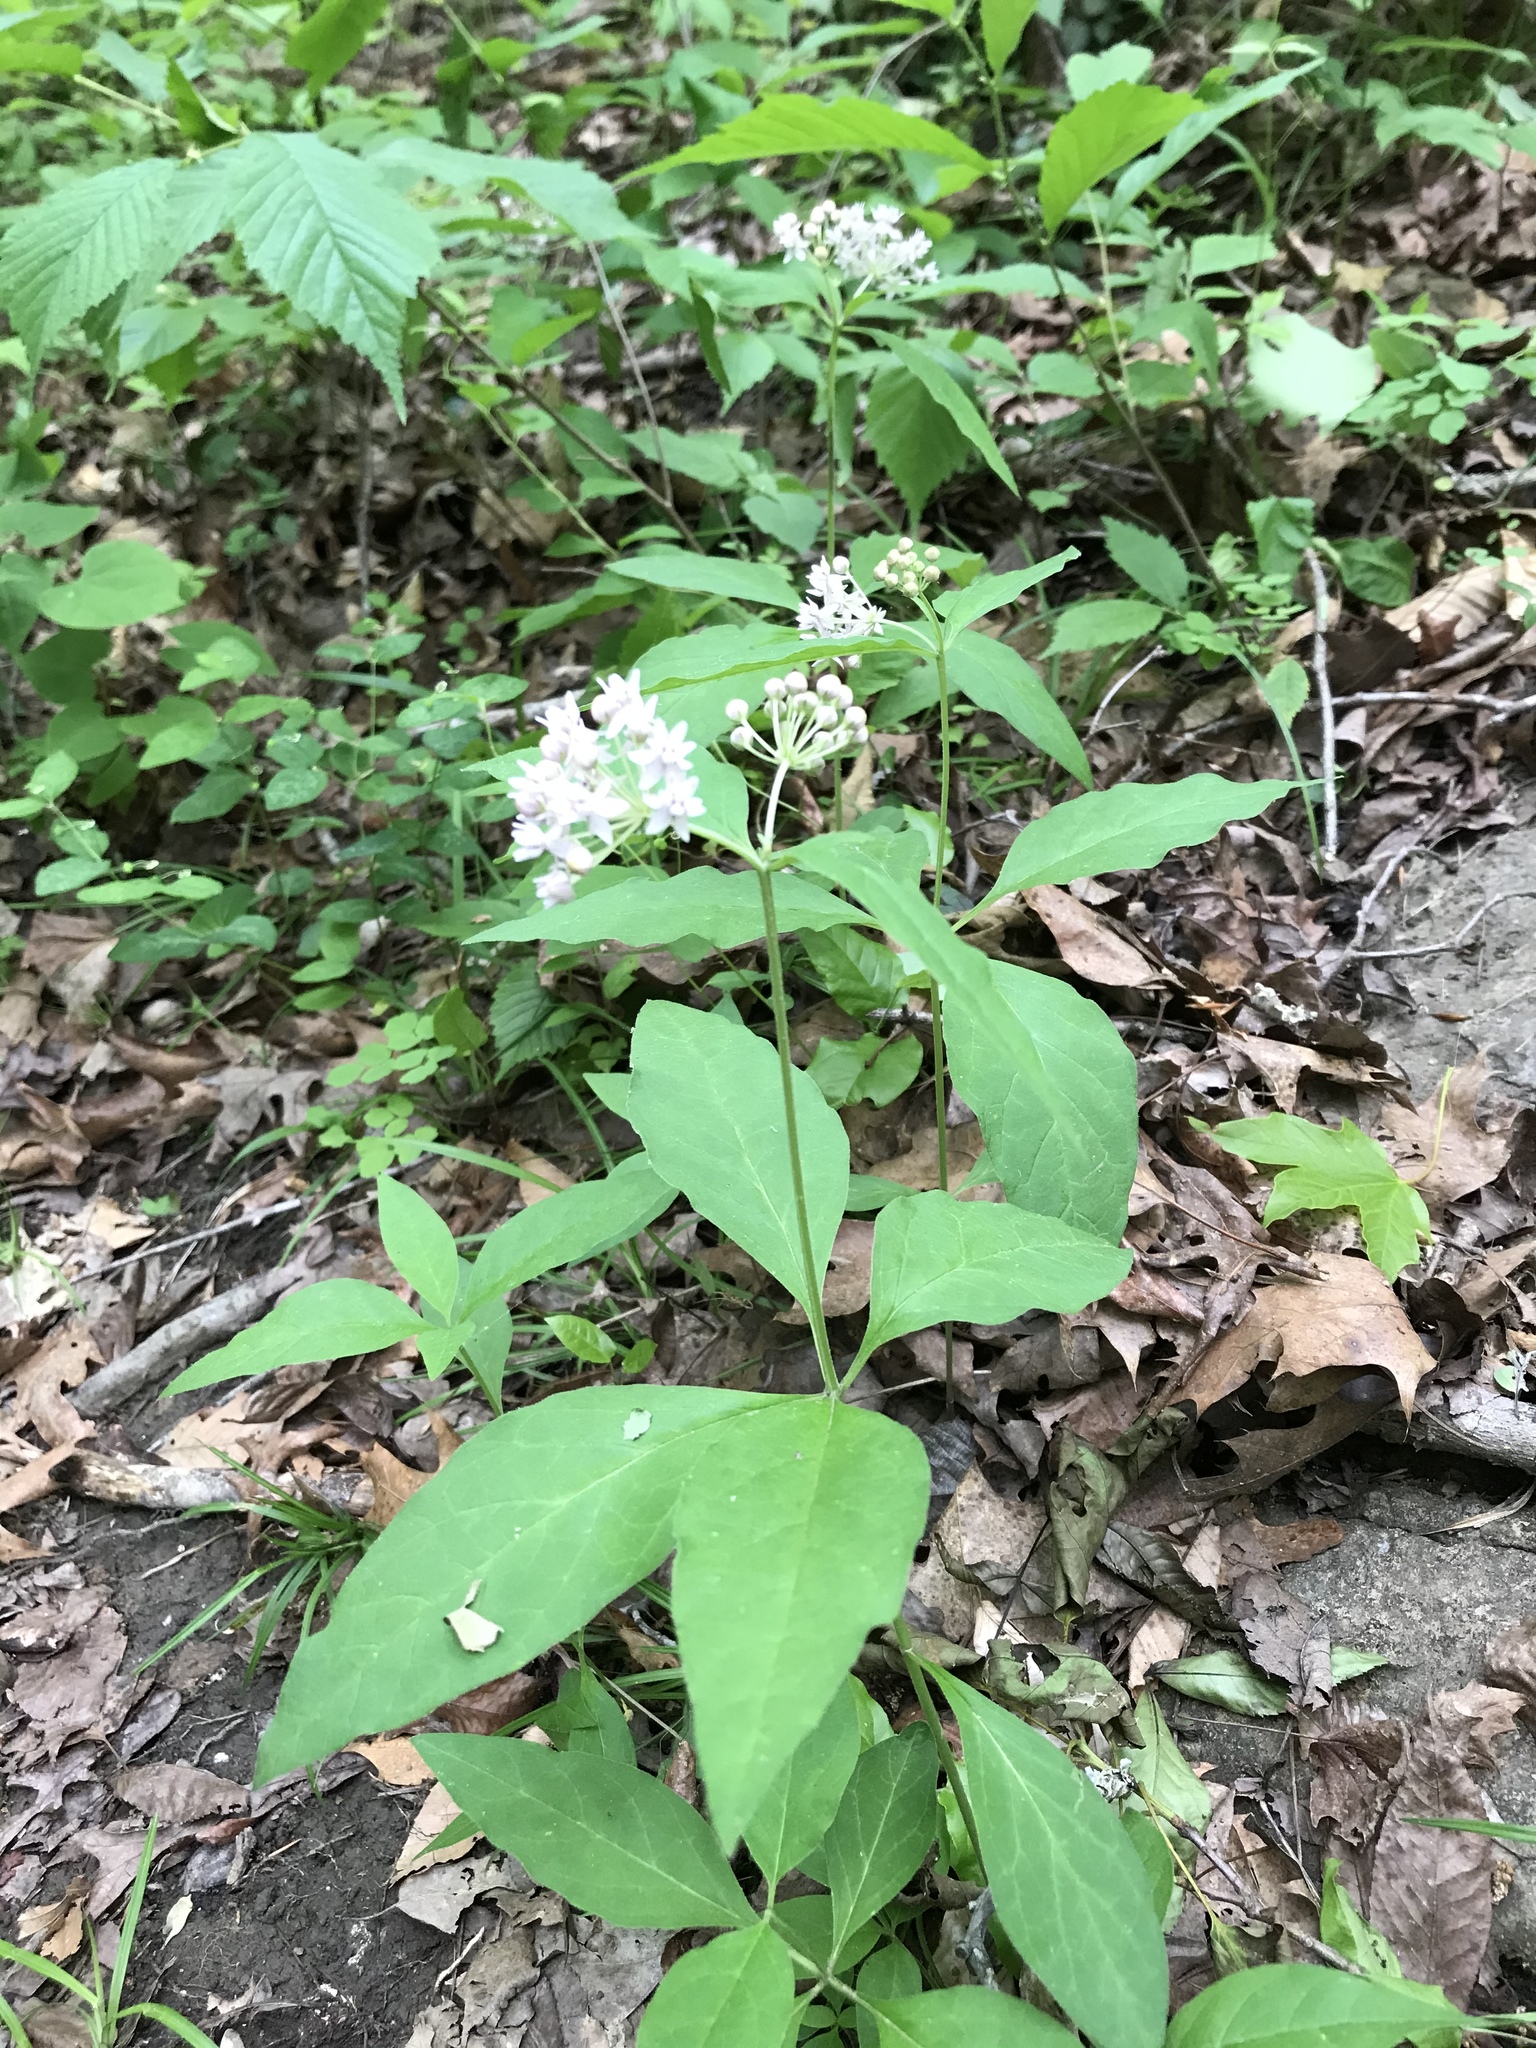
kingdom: Plantae
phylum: Tracheophyta
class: Magnoliopsida
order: Gentianales
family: Apocynaceae
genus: Asclepias
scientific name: Asclepias quadrifolia
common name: Whorled milkweed
